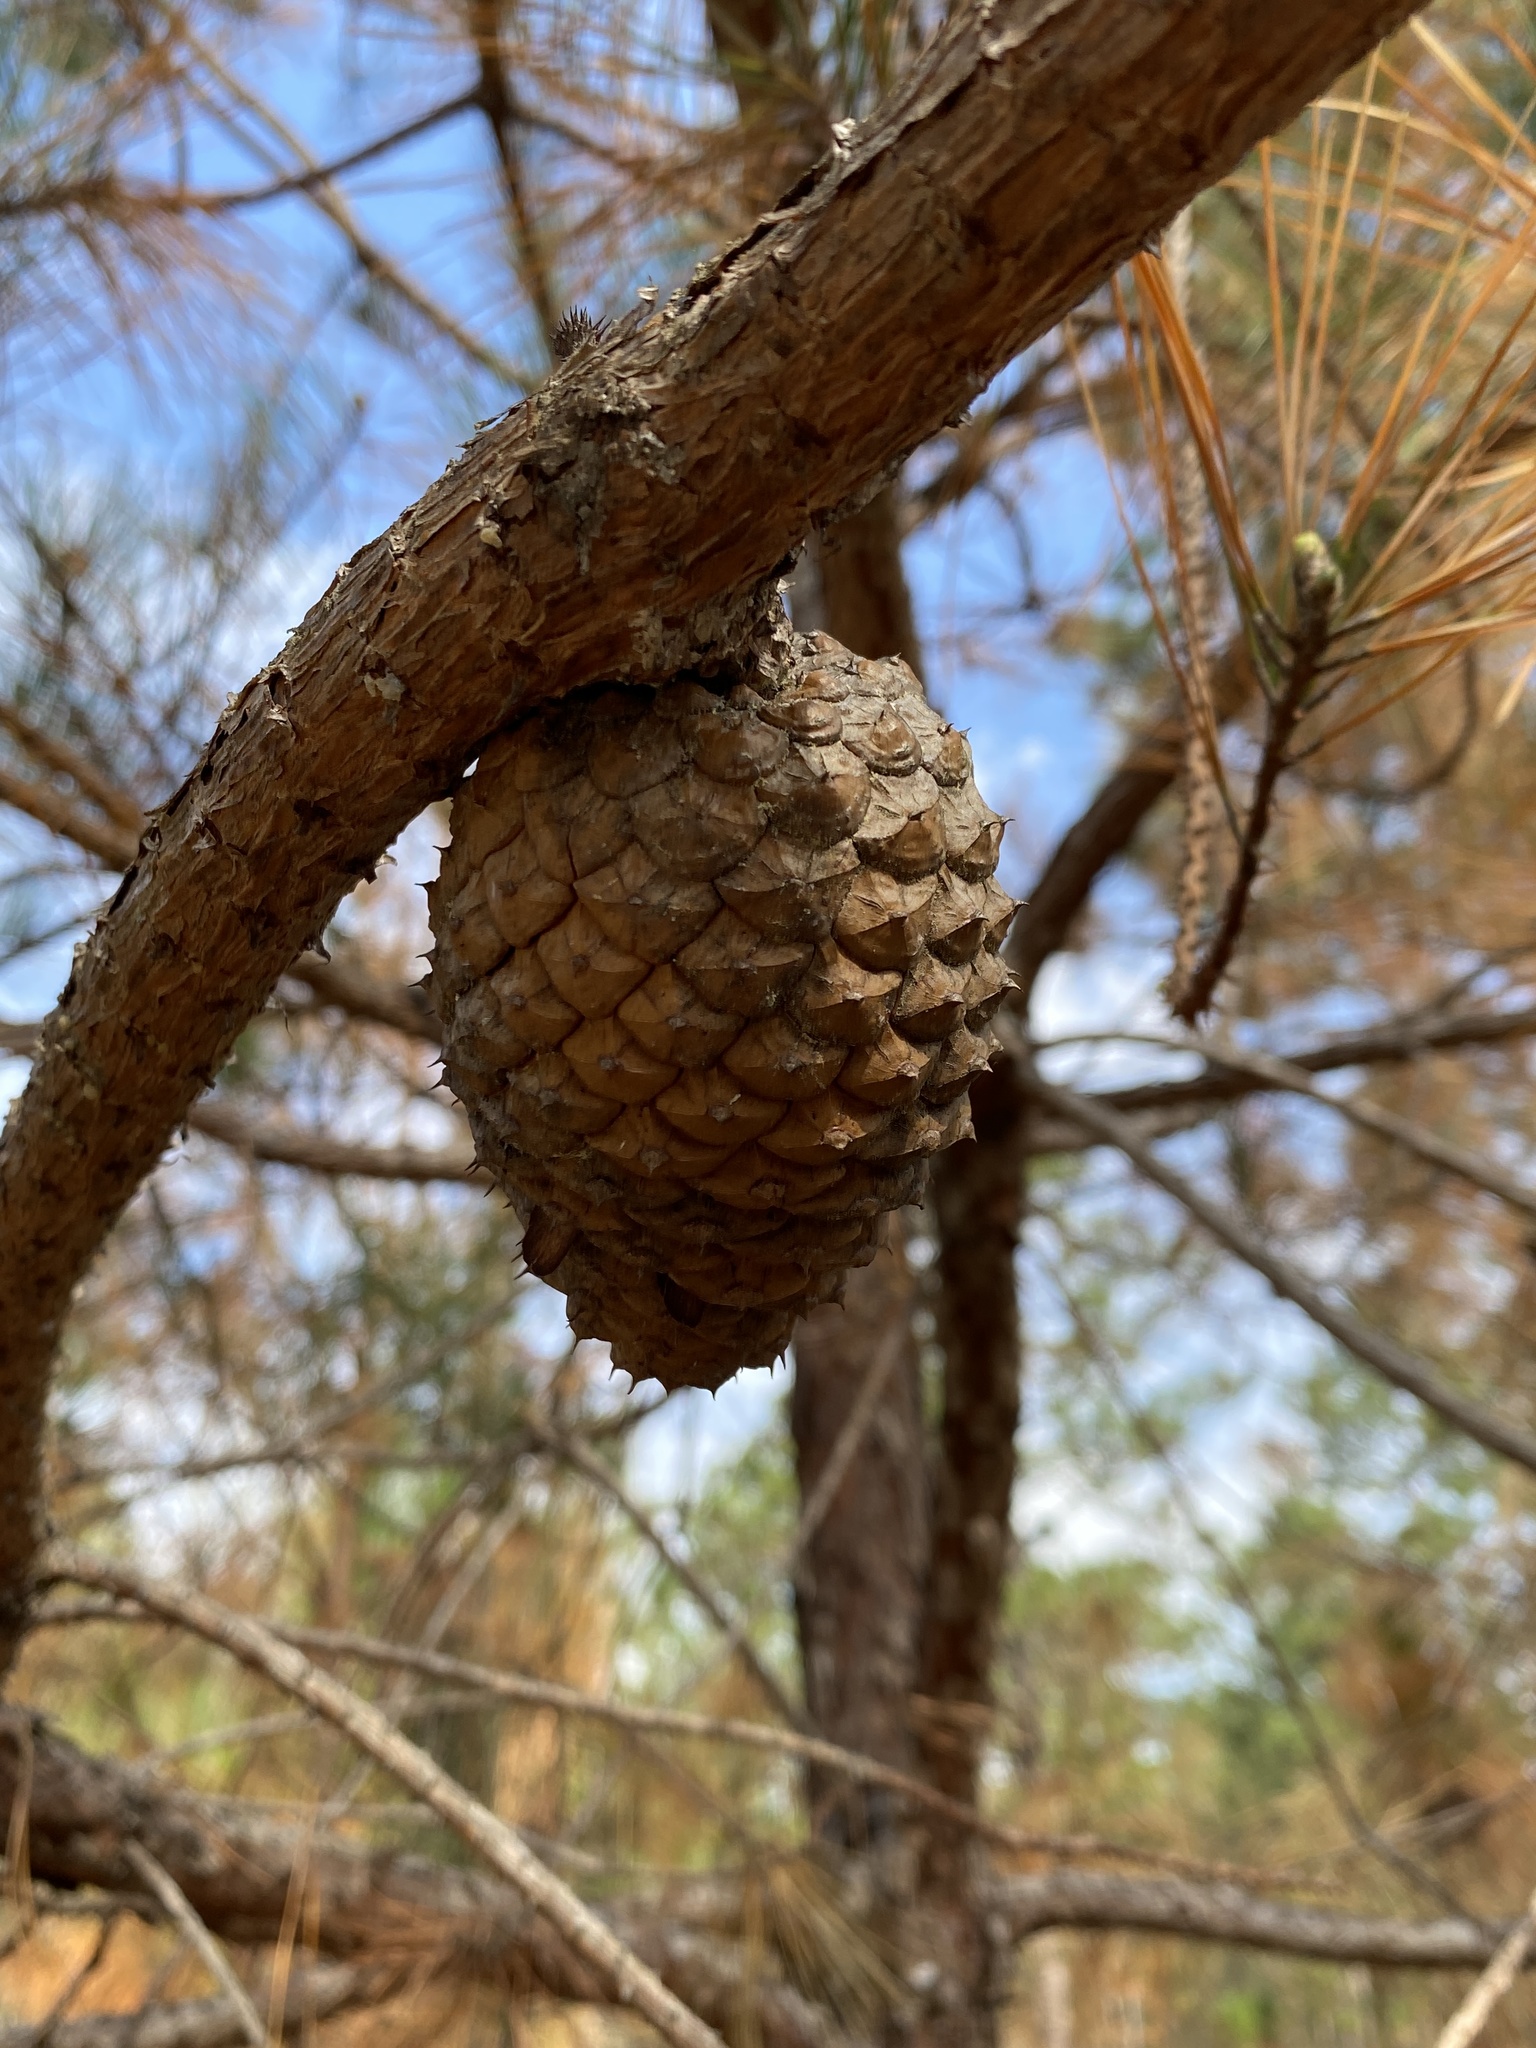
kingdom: Plantae
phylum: Tracheophyta
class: Pinopsida
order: Pinales
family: Pinaceae
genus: Pinus
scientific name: Pinus serotina
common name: Marsh pine
